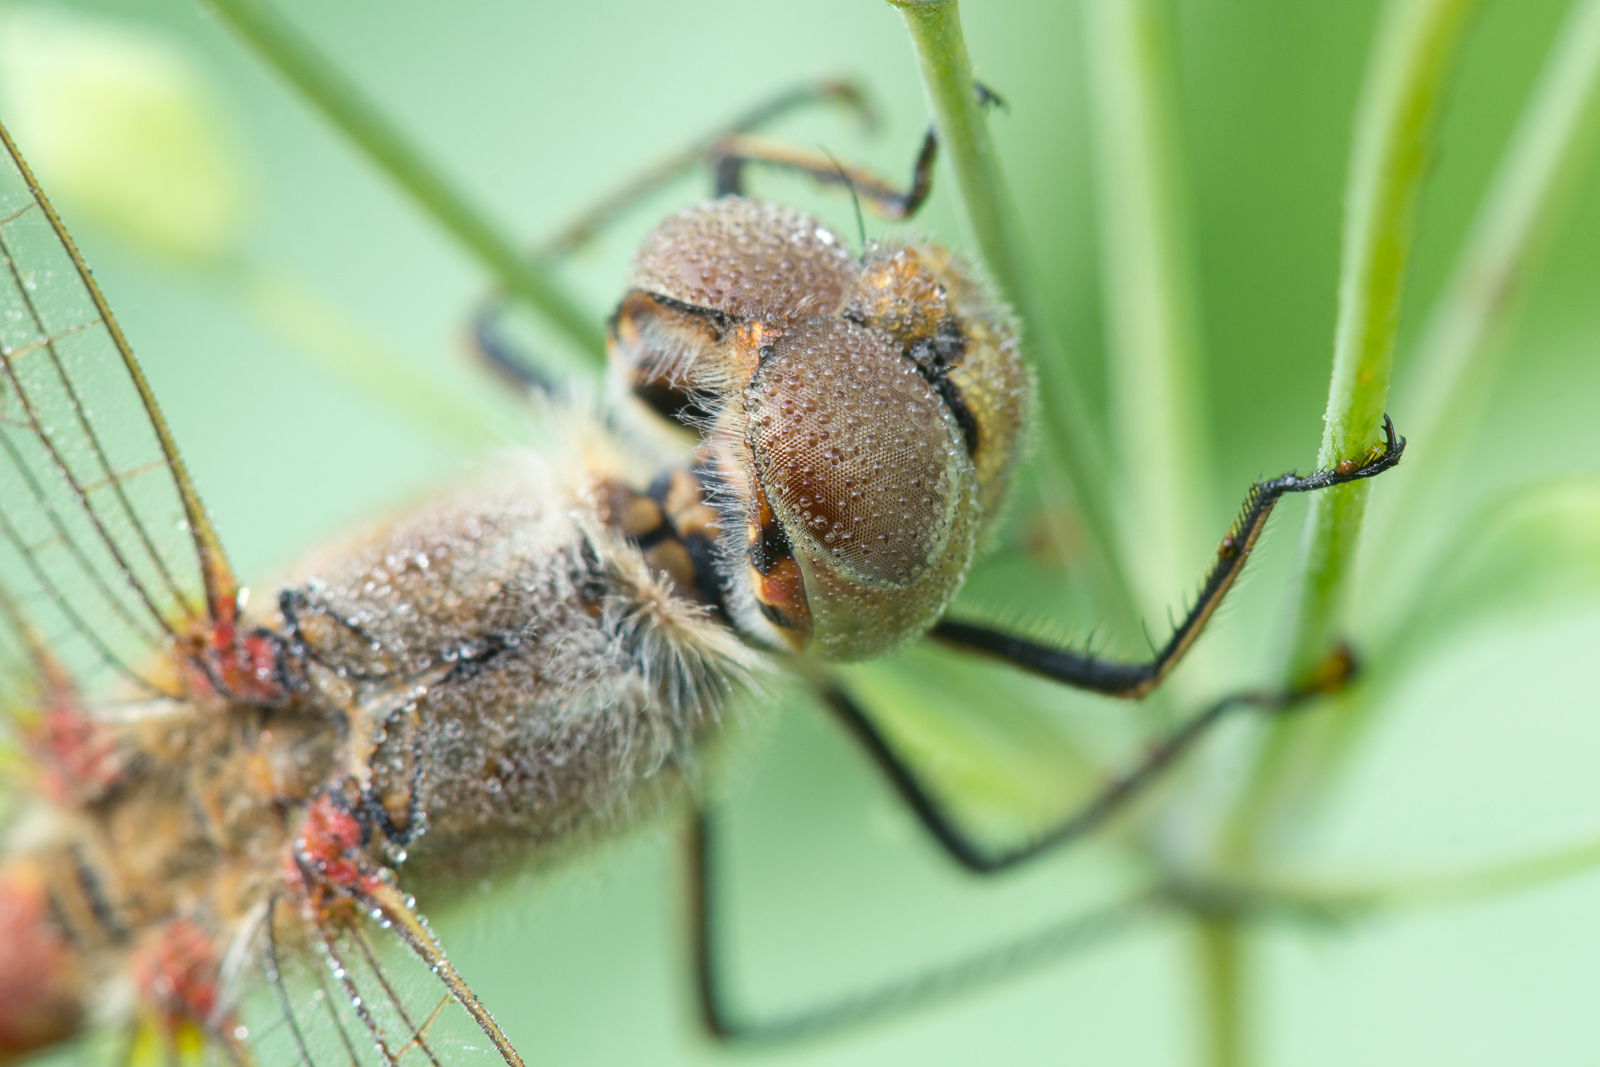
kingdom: Animalia
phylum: Arthropoda
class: Insecta
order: Odonata
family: Libellulidae
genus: Sympetrum
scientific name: Sympetrum vulgatum
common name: Vagrant darter
